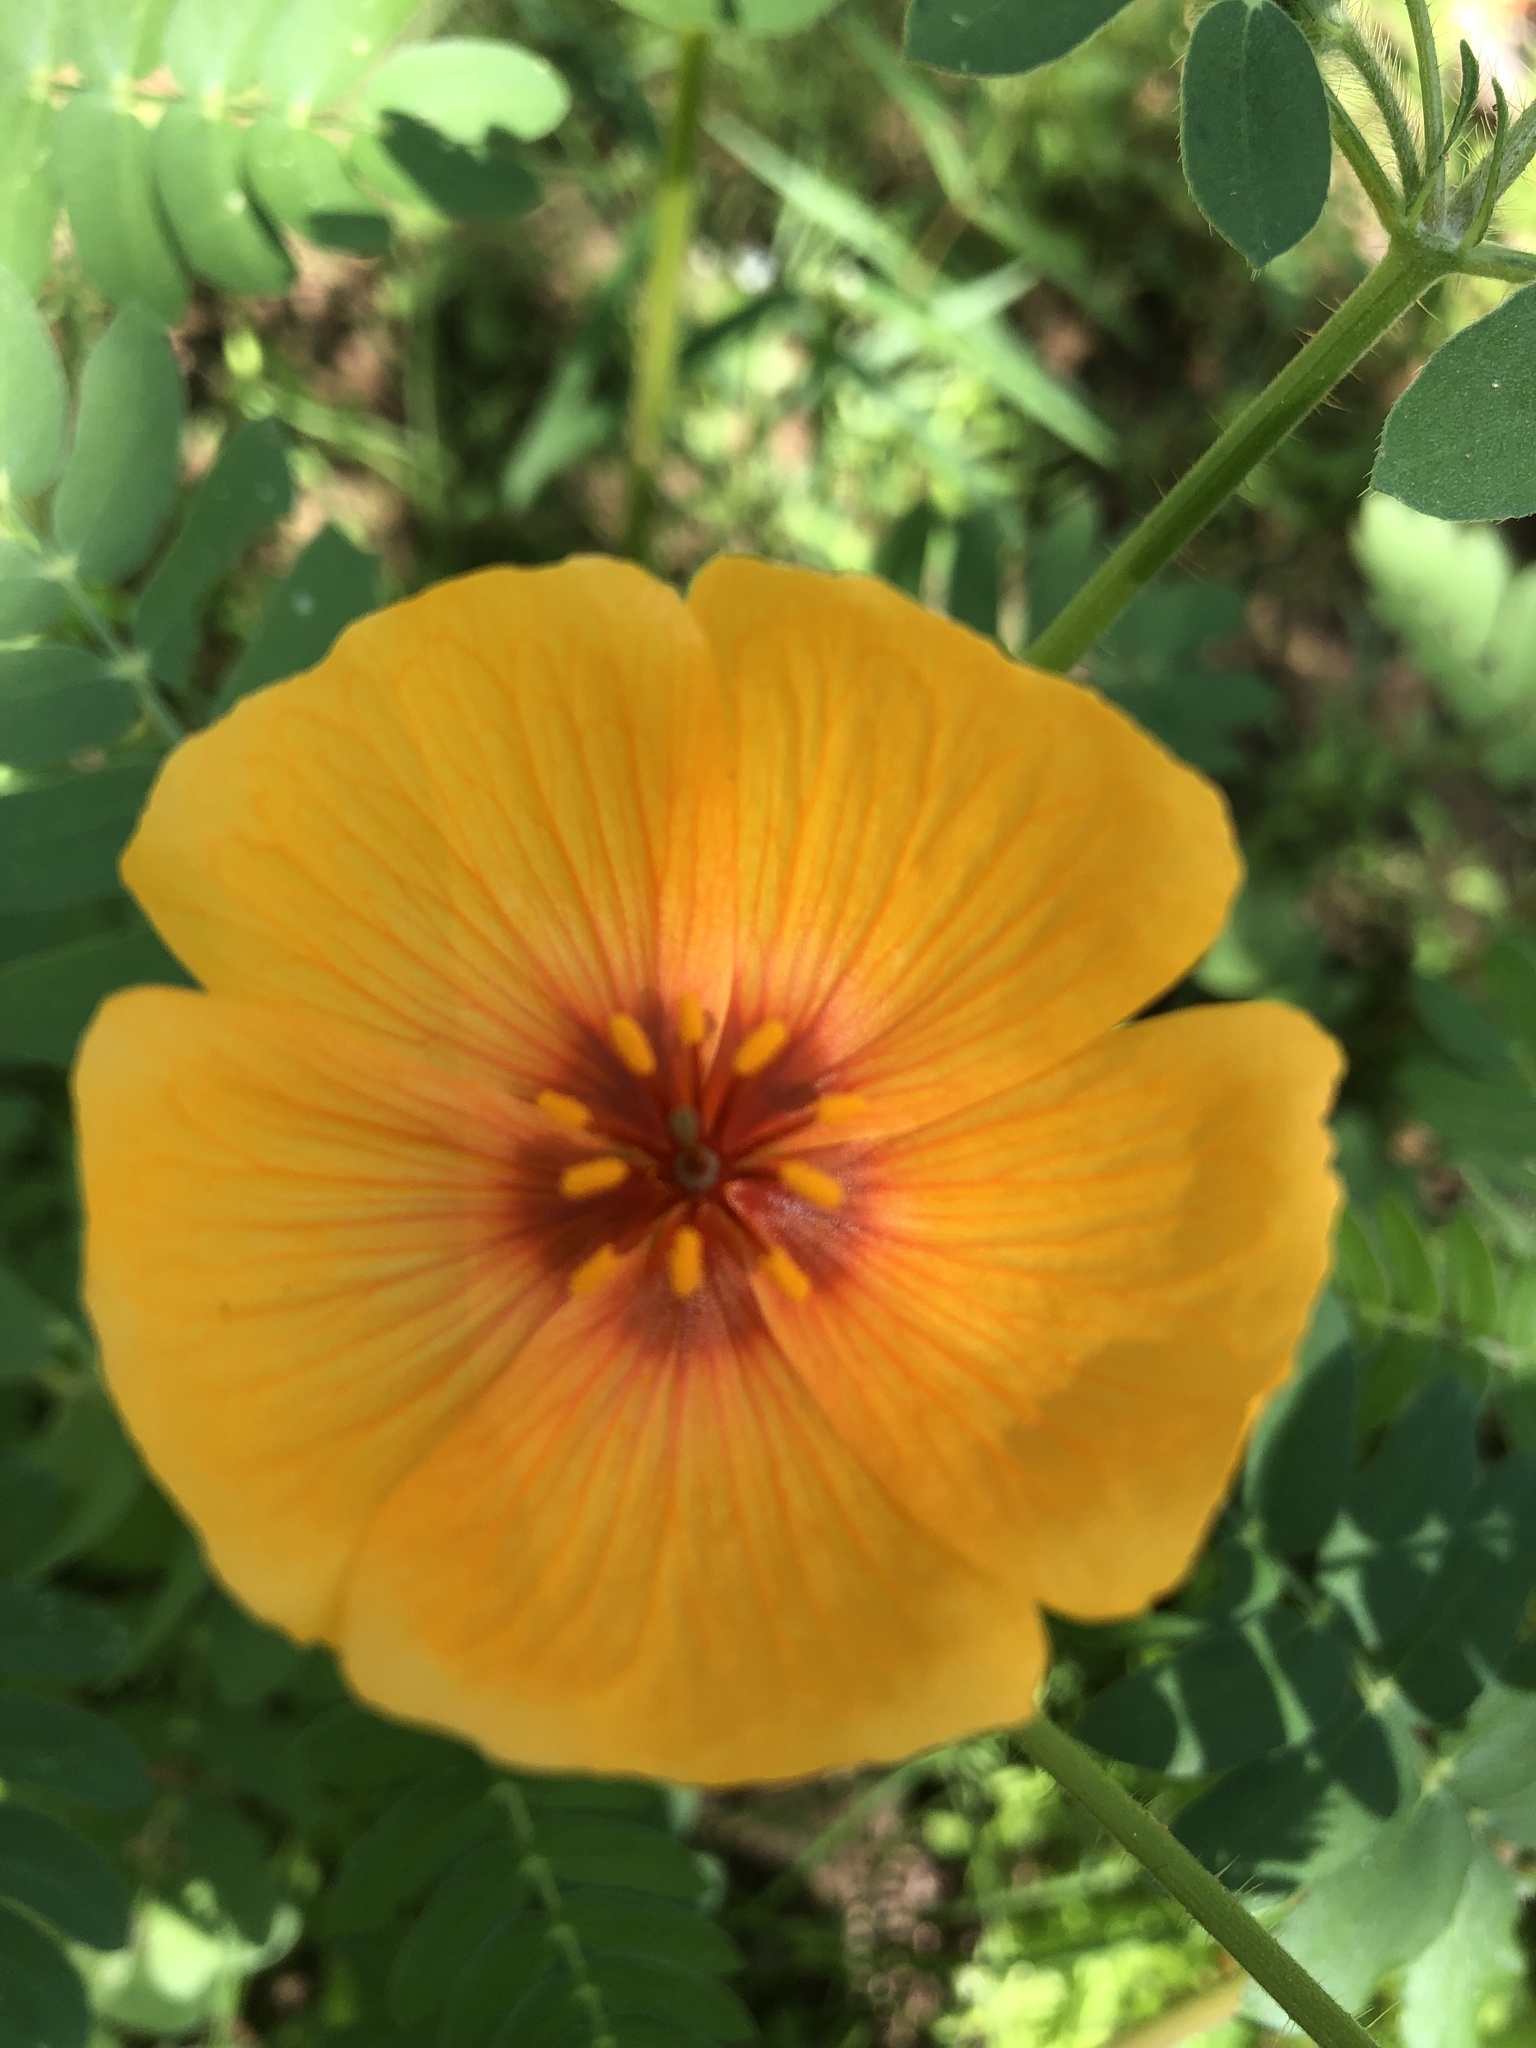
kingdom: Plantae
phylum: Tracheophyta
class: Magnoliopsida
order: Zygophyllales
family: Zygophyllaceae
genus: Kallstroemia
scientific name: Kallstroemia grandiflora
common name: Arizona-poppy
